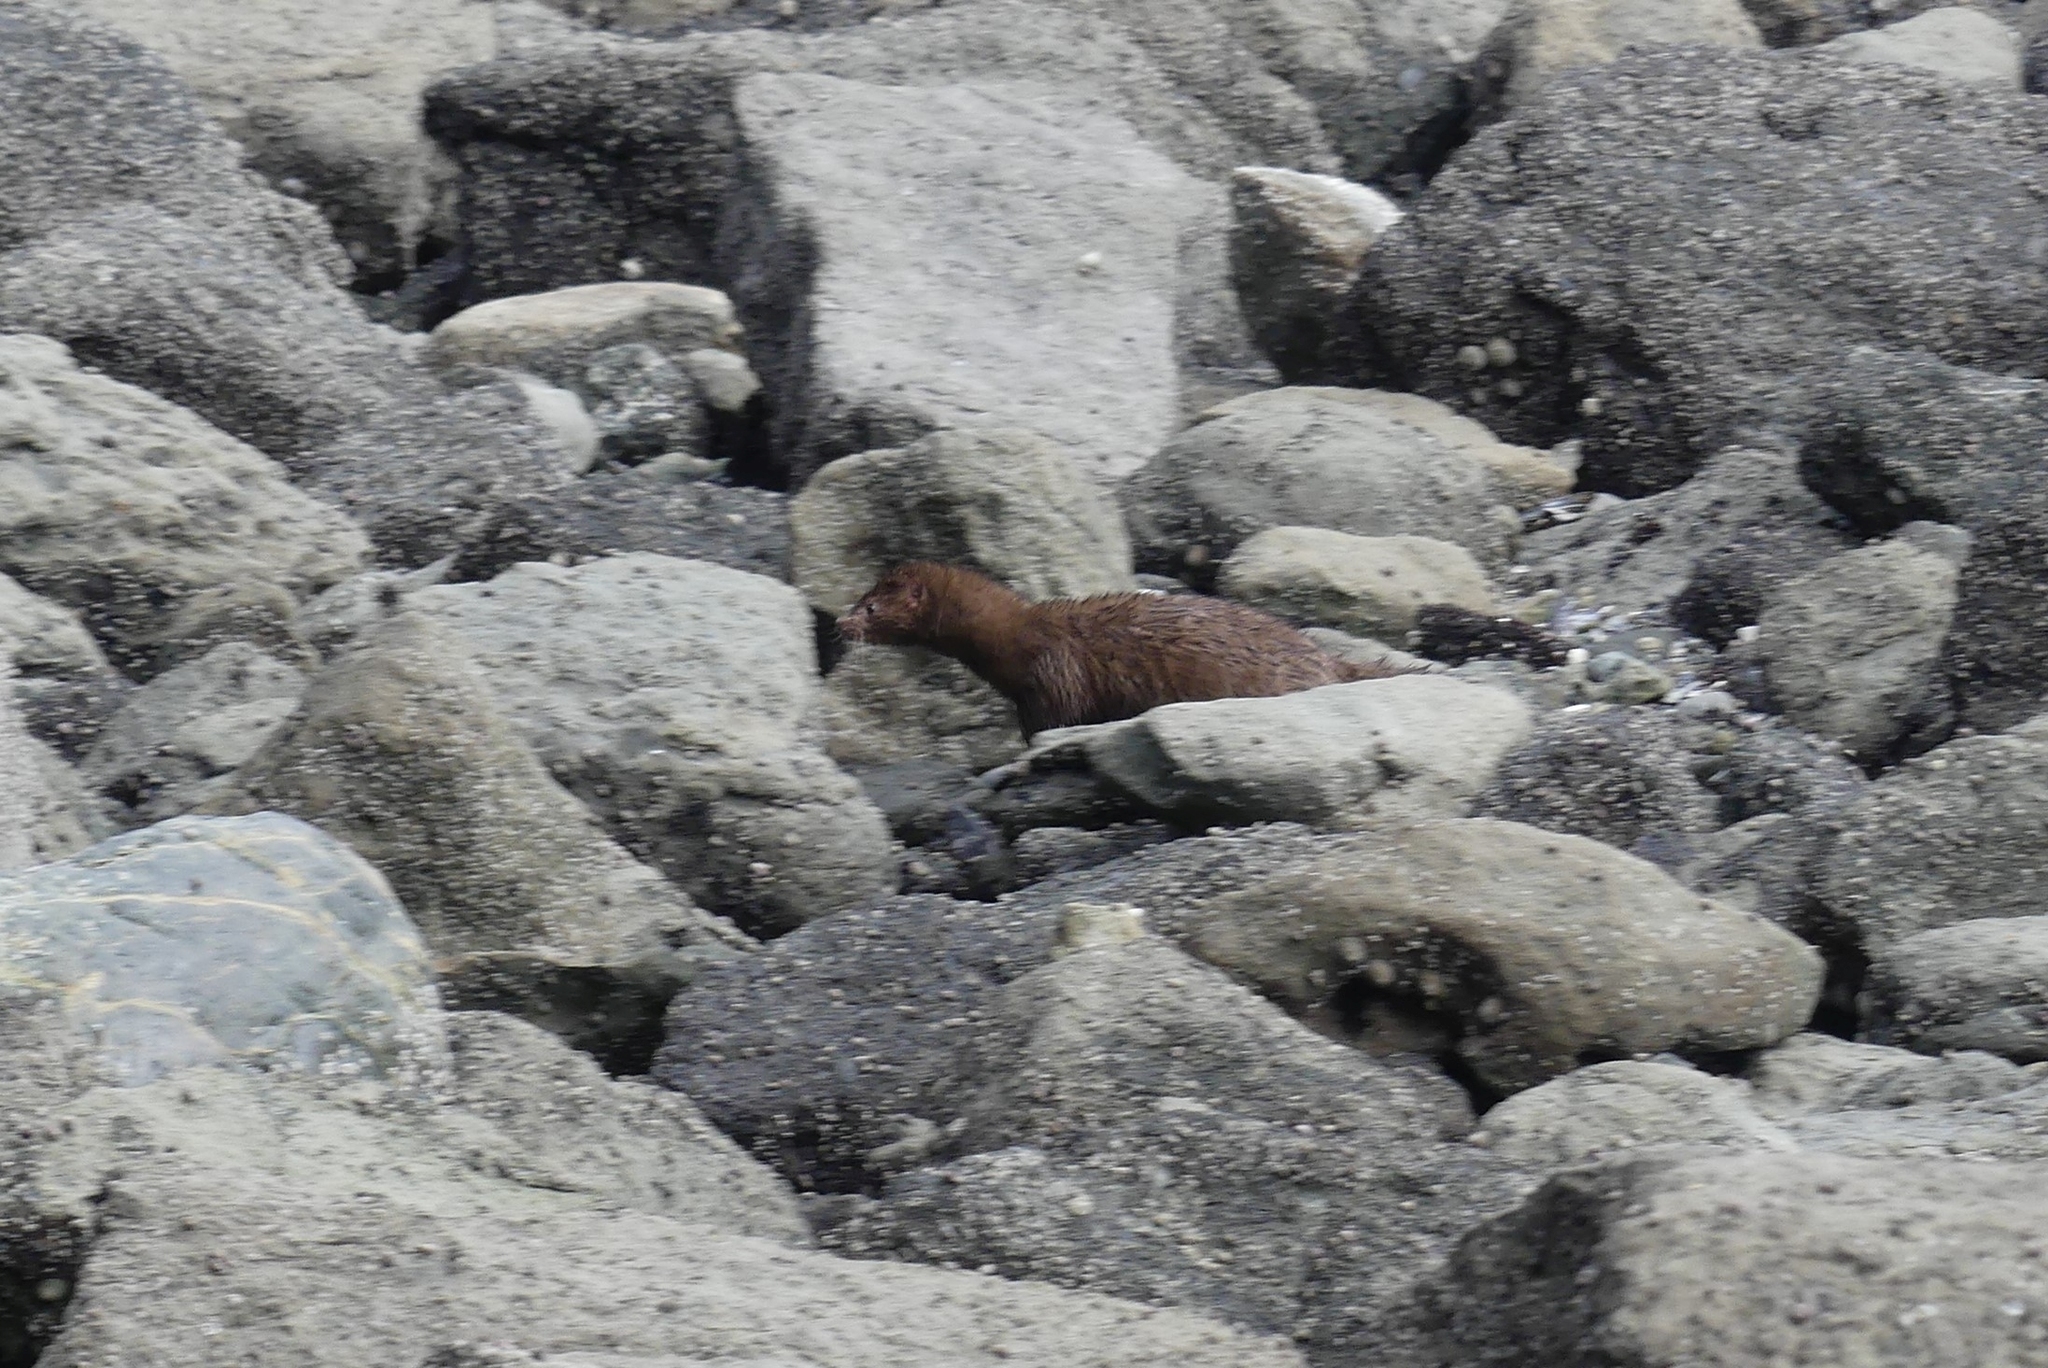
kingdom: Animalia
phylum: Chordata
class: Mammalia
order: Carnivora
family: Mustelidae
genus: Mustela
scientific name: Mustela
